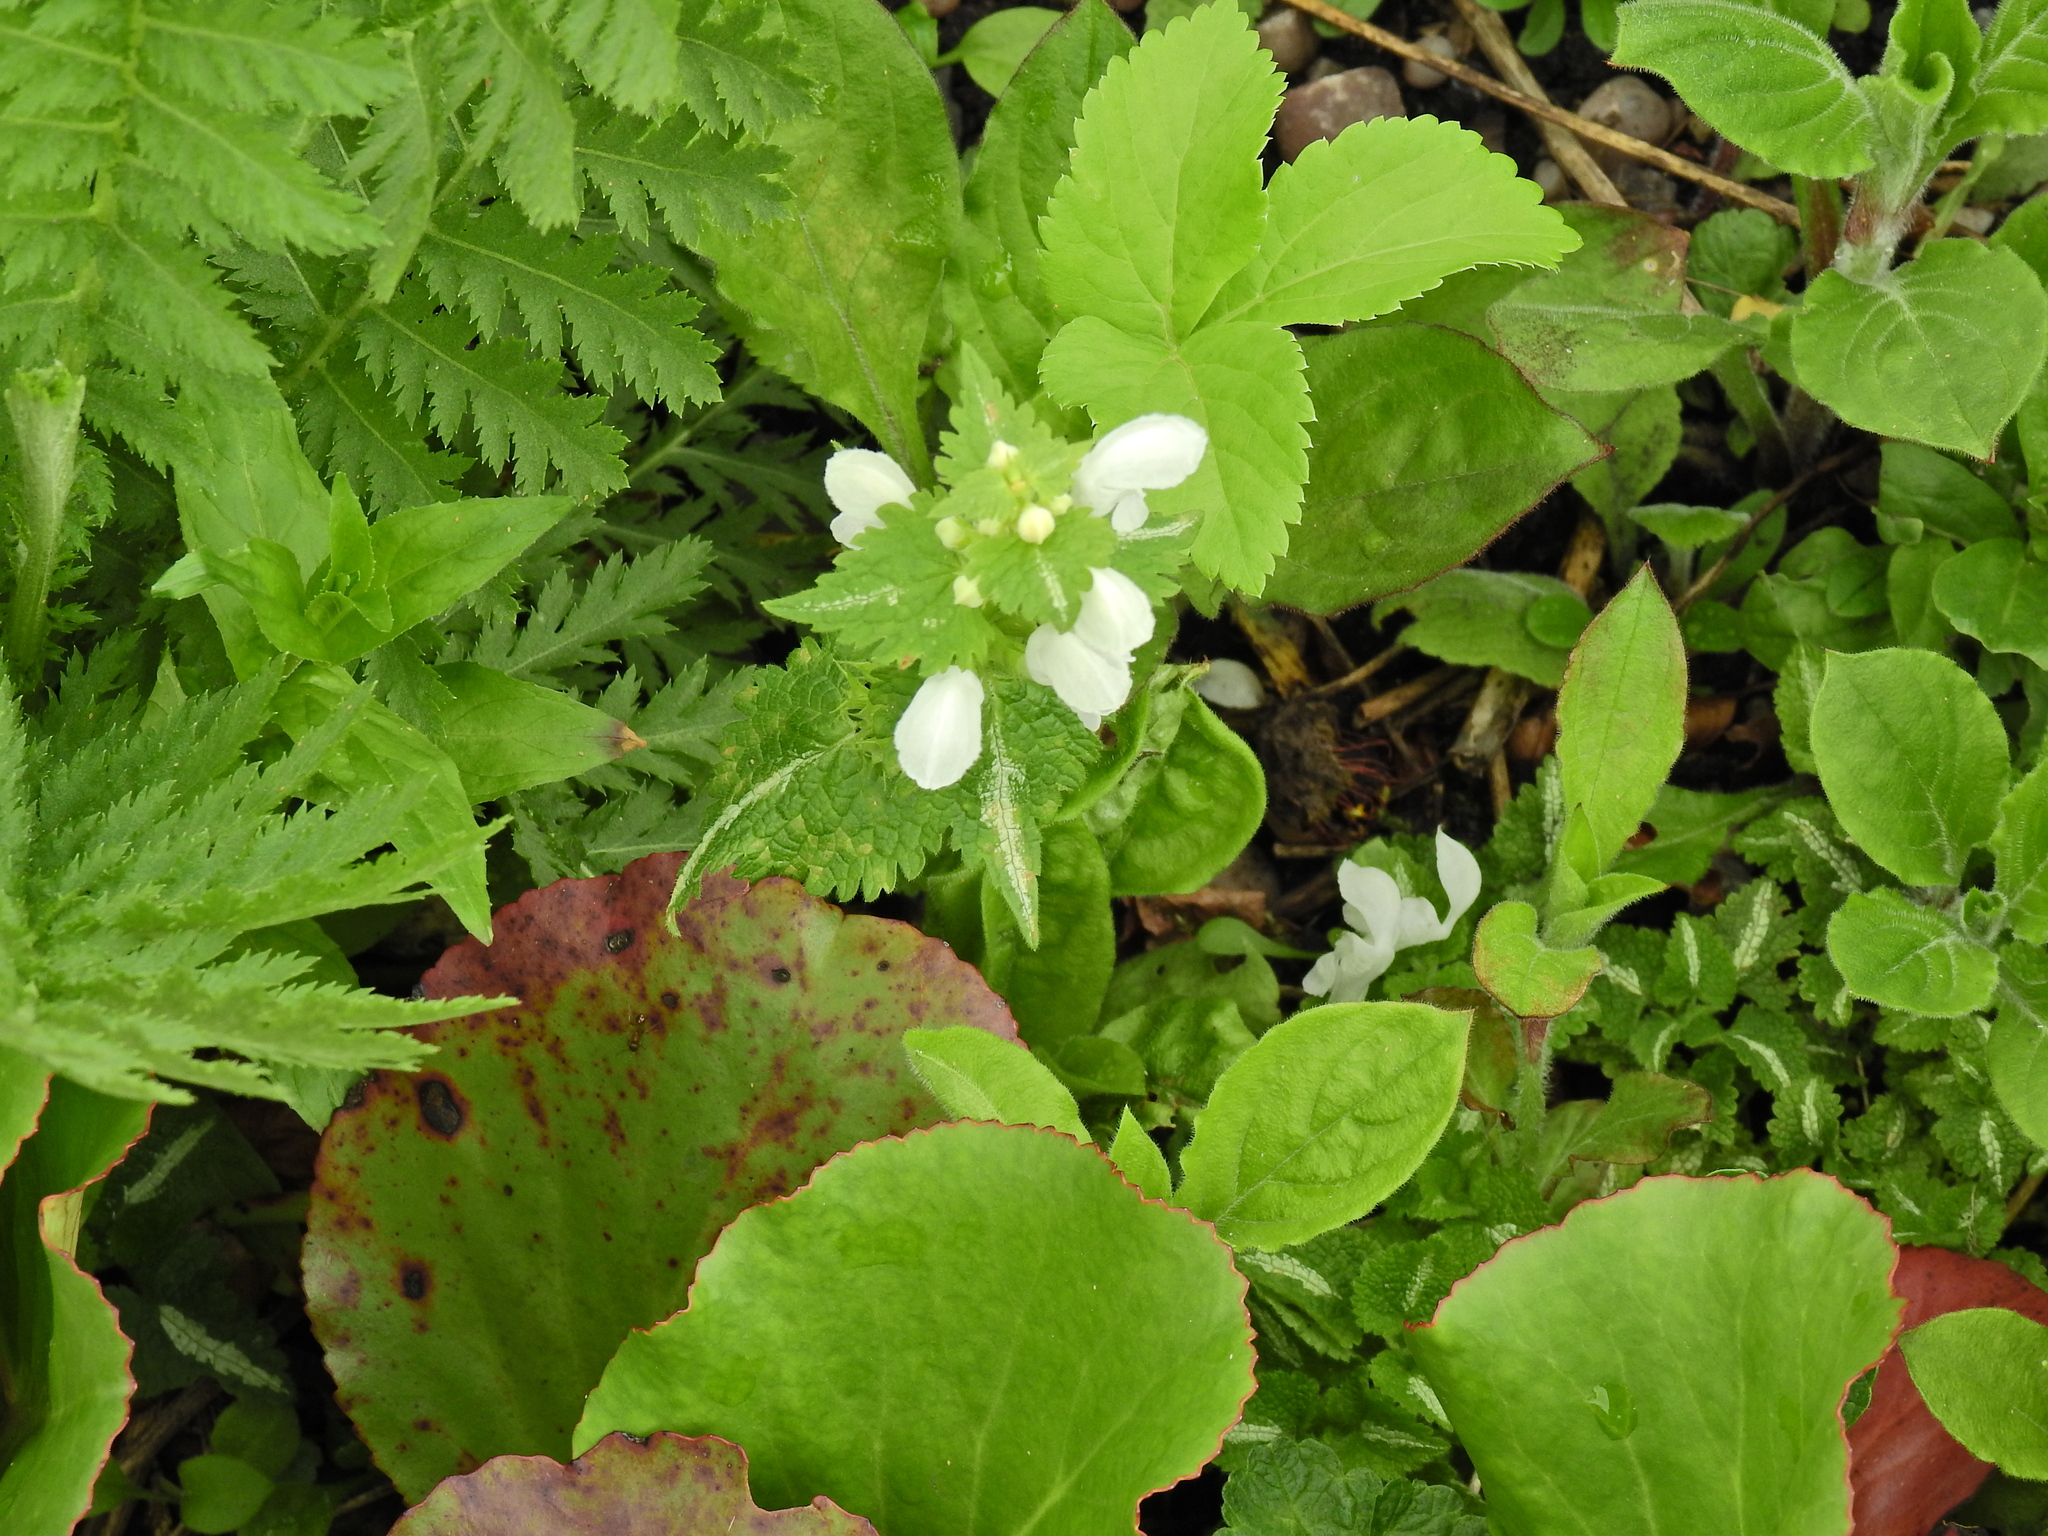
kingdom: Plantae
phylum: Tracheophyta
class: Magnoliopsida
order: Lamiales
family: Lamiaceae
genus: Lamium
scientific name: Lamium album
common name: White dead-nettle
